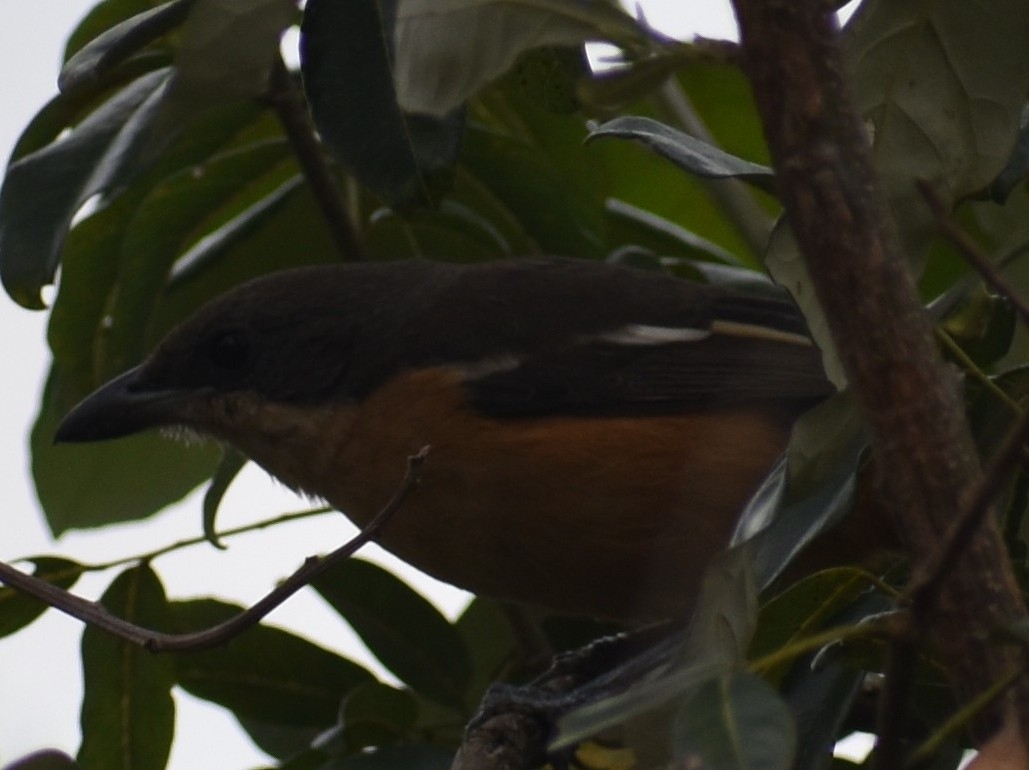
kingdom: Animalia
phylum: Chordata
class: Aves
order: Passeriformes
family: Malaconotidae
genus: Laniarius
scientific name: Laniarius ferrugineus
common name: Southern boubou
